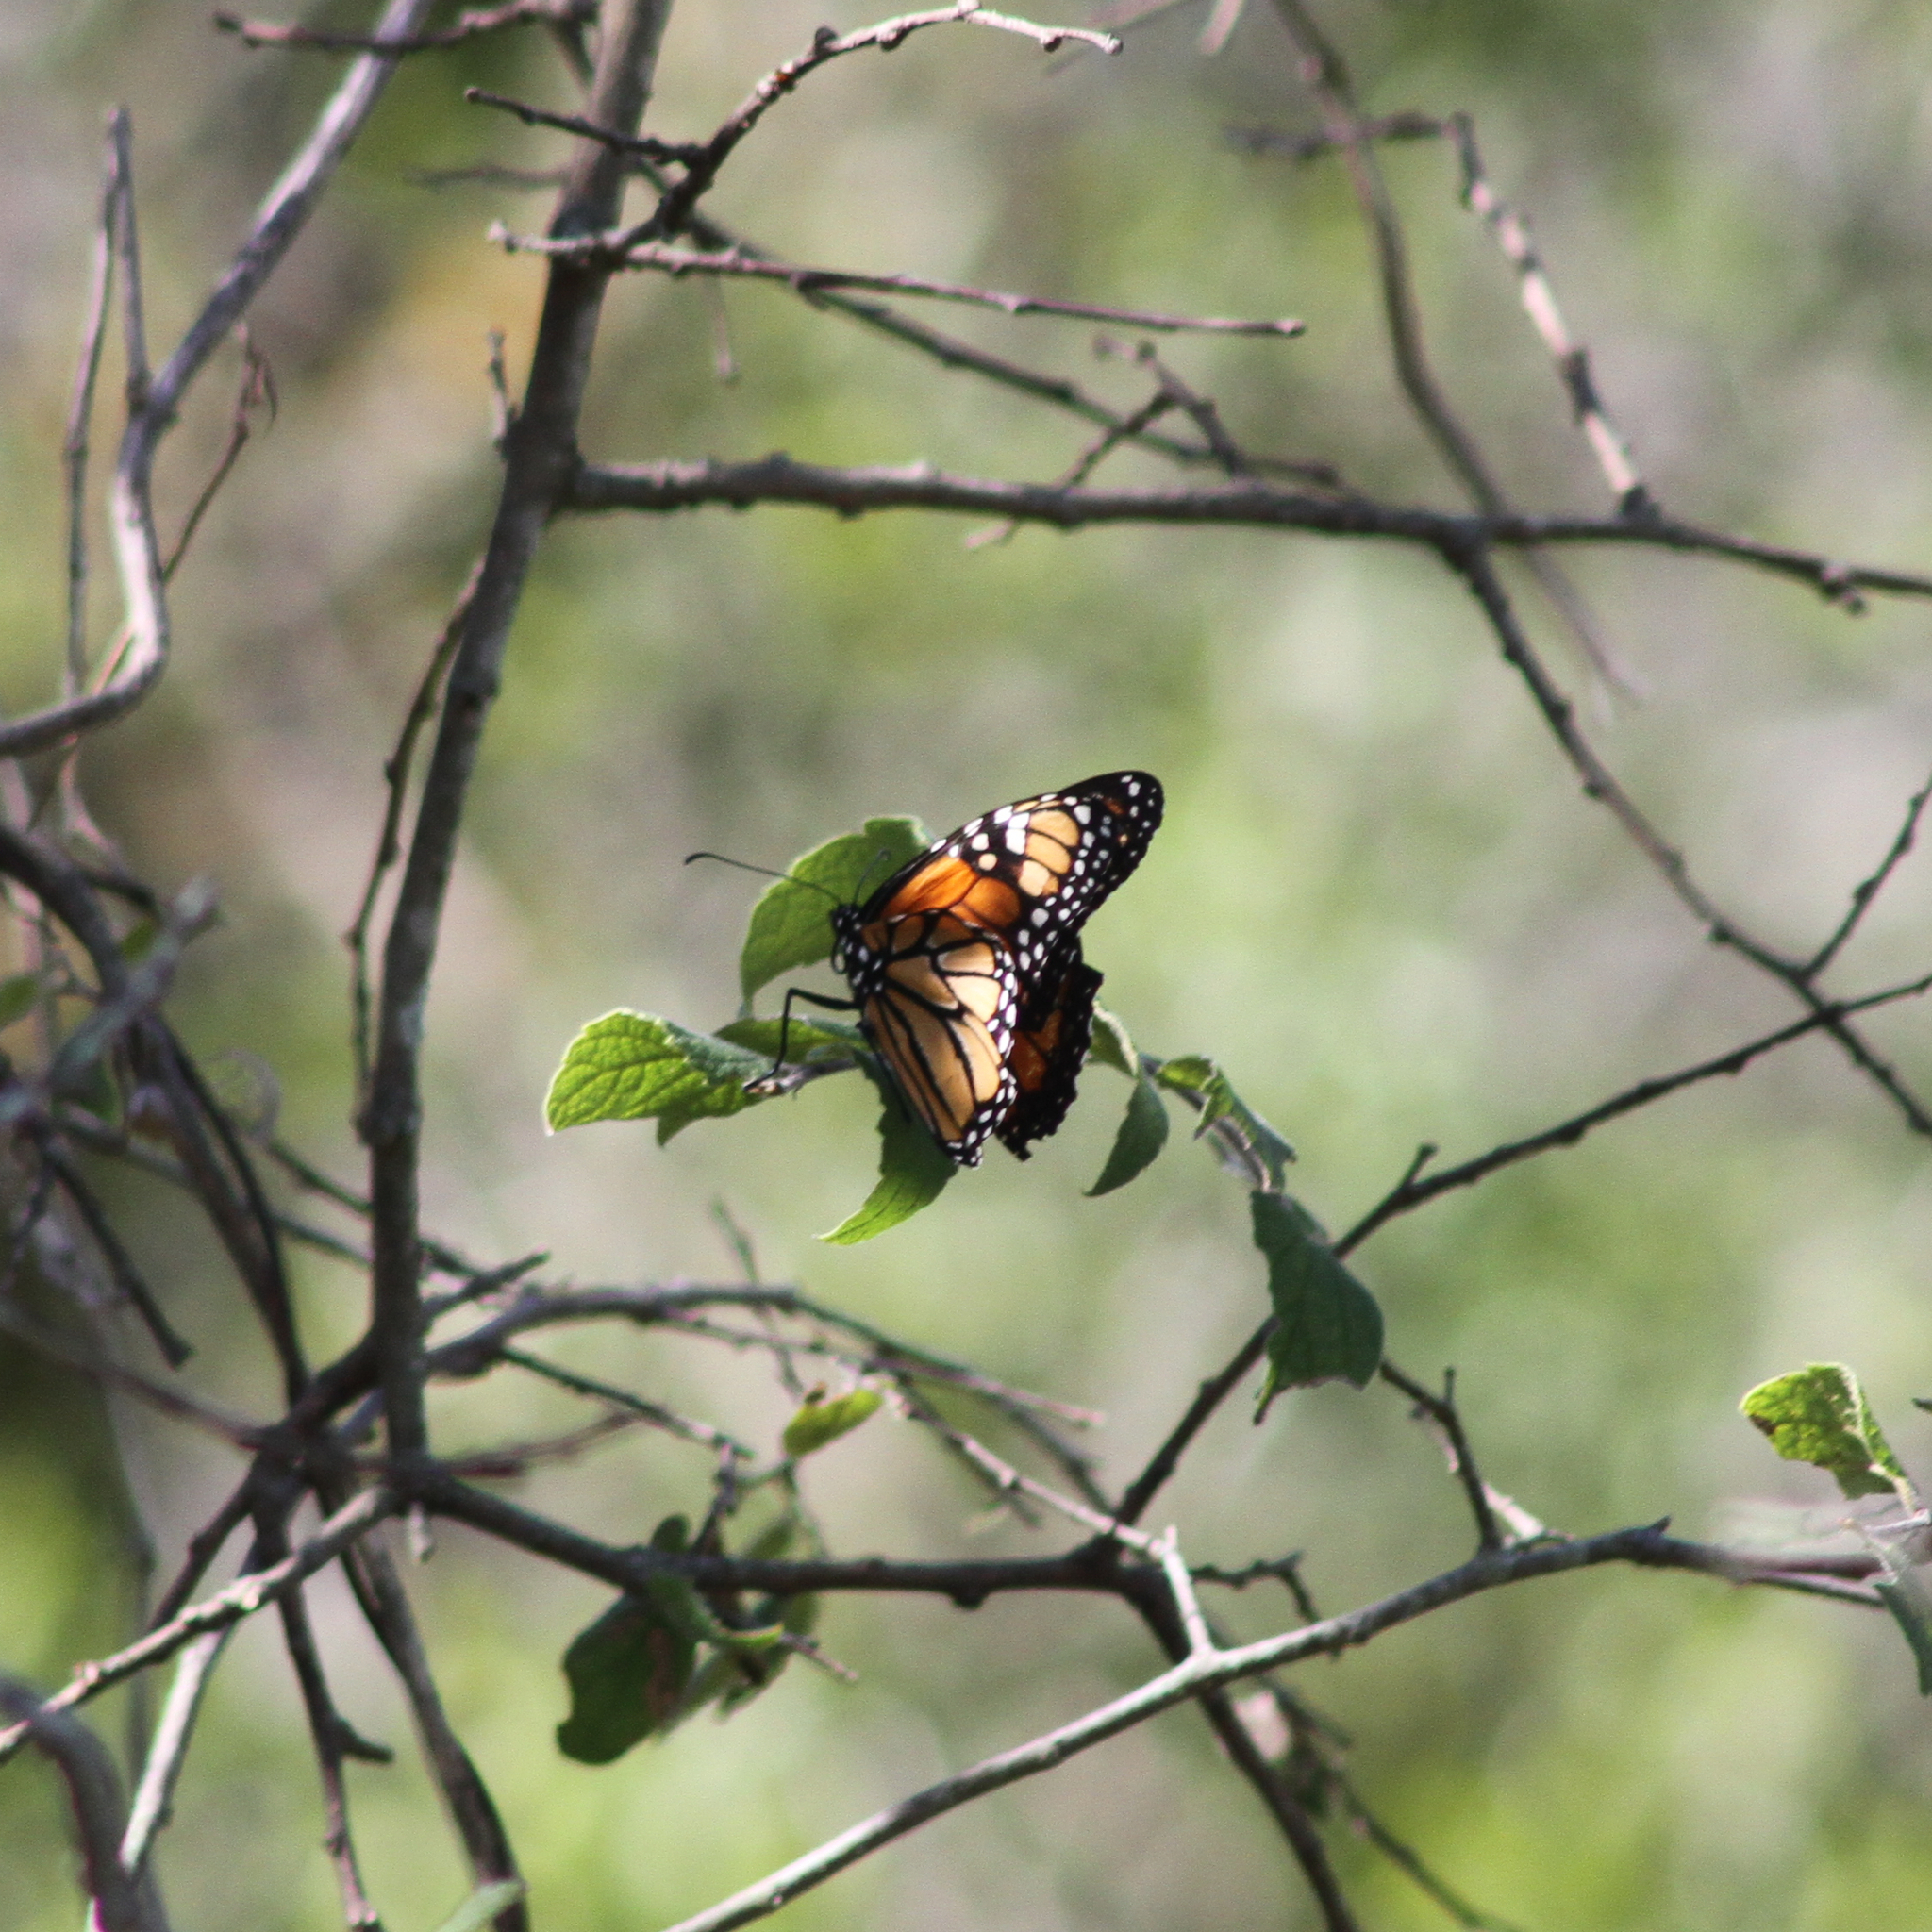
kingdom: Animalia
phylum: Arthropoda
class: Insecta
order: Lepidoptera
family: Nymphalidae
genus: Danaus
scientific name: Danaus plexippus
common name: Monarch
